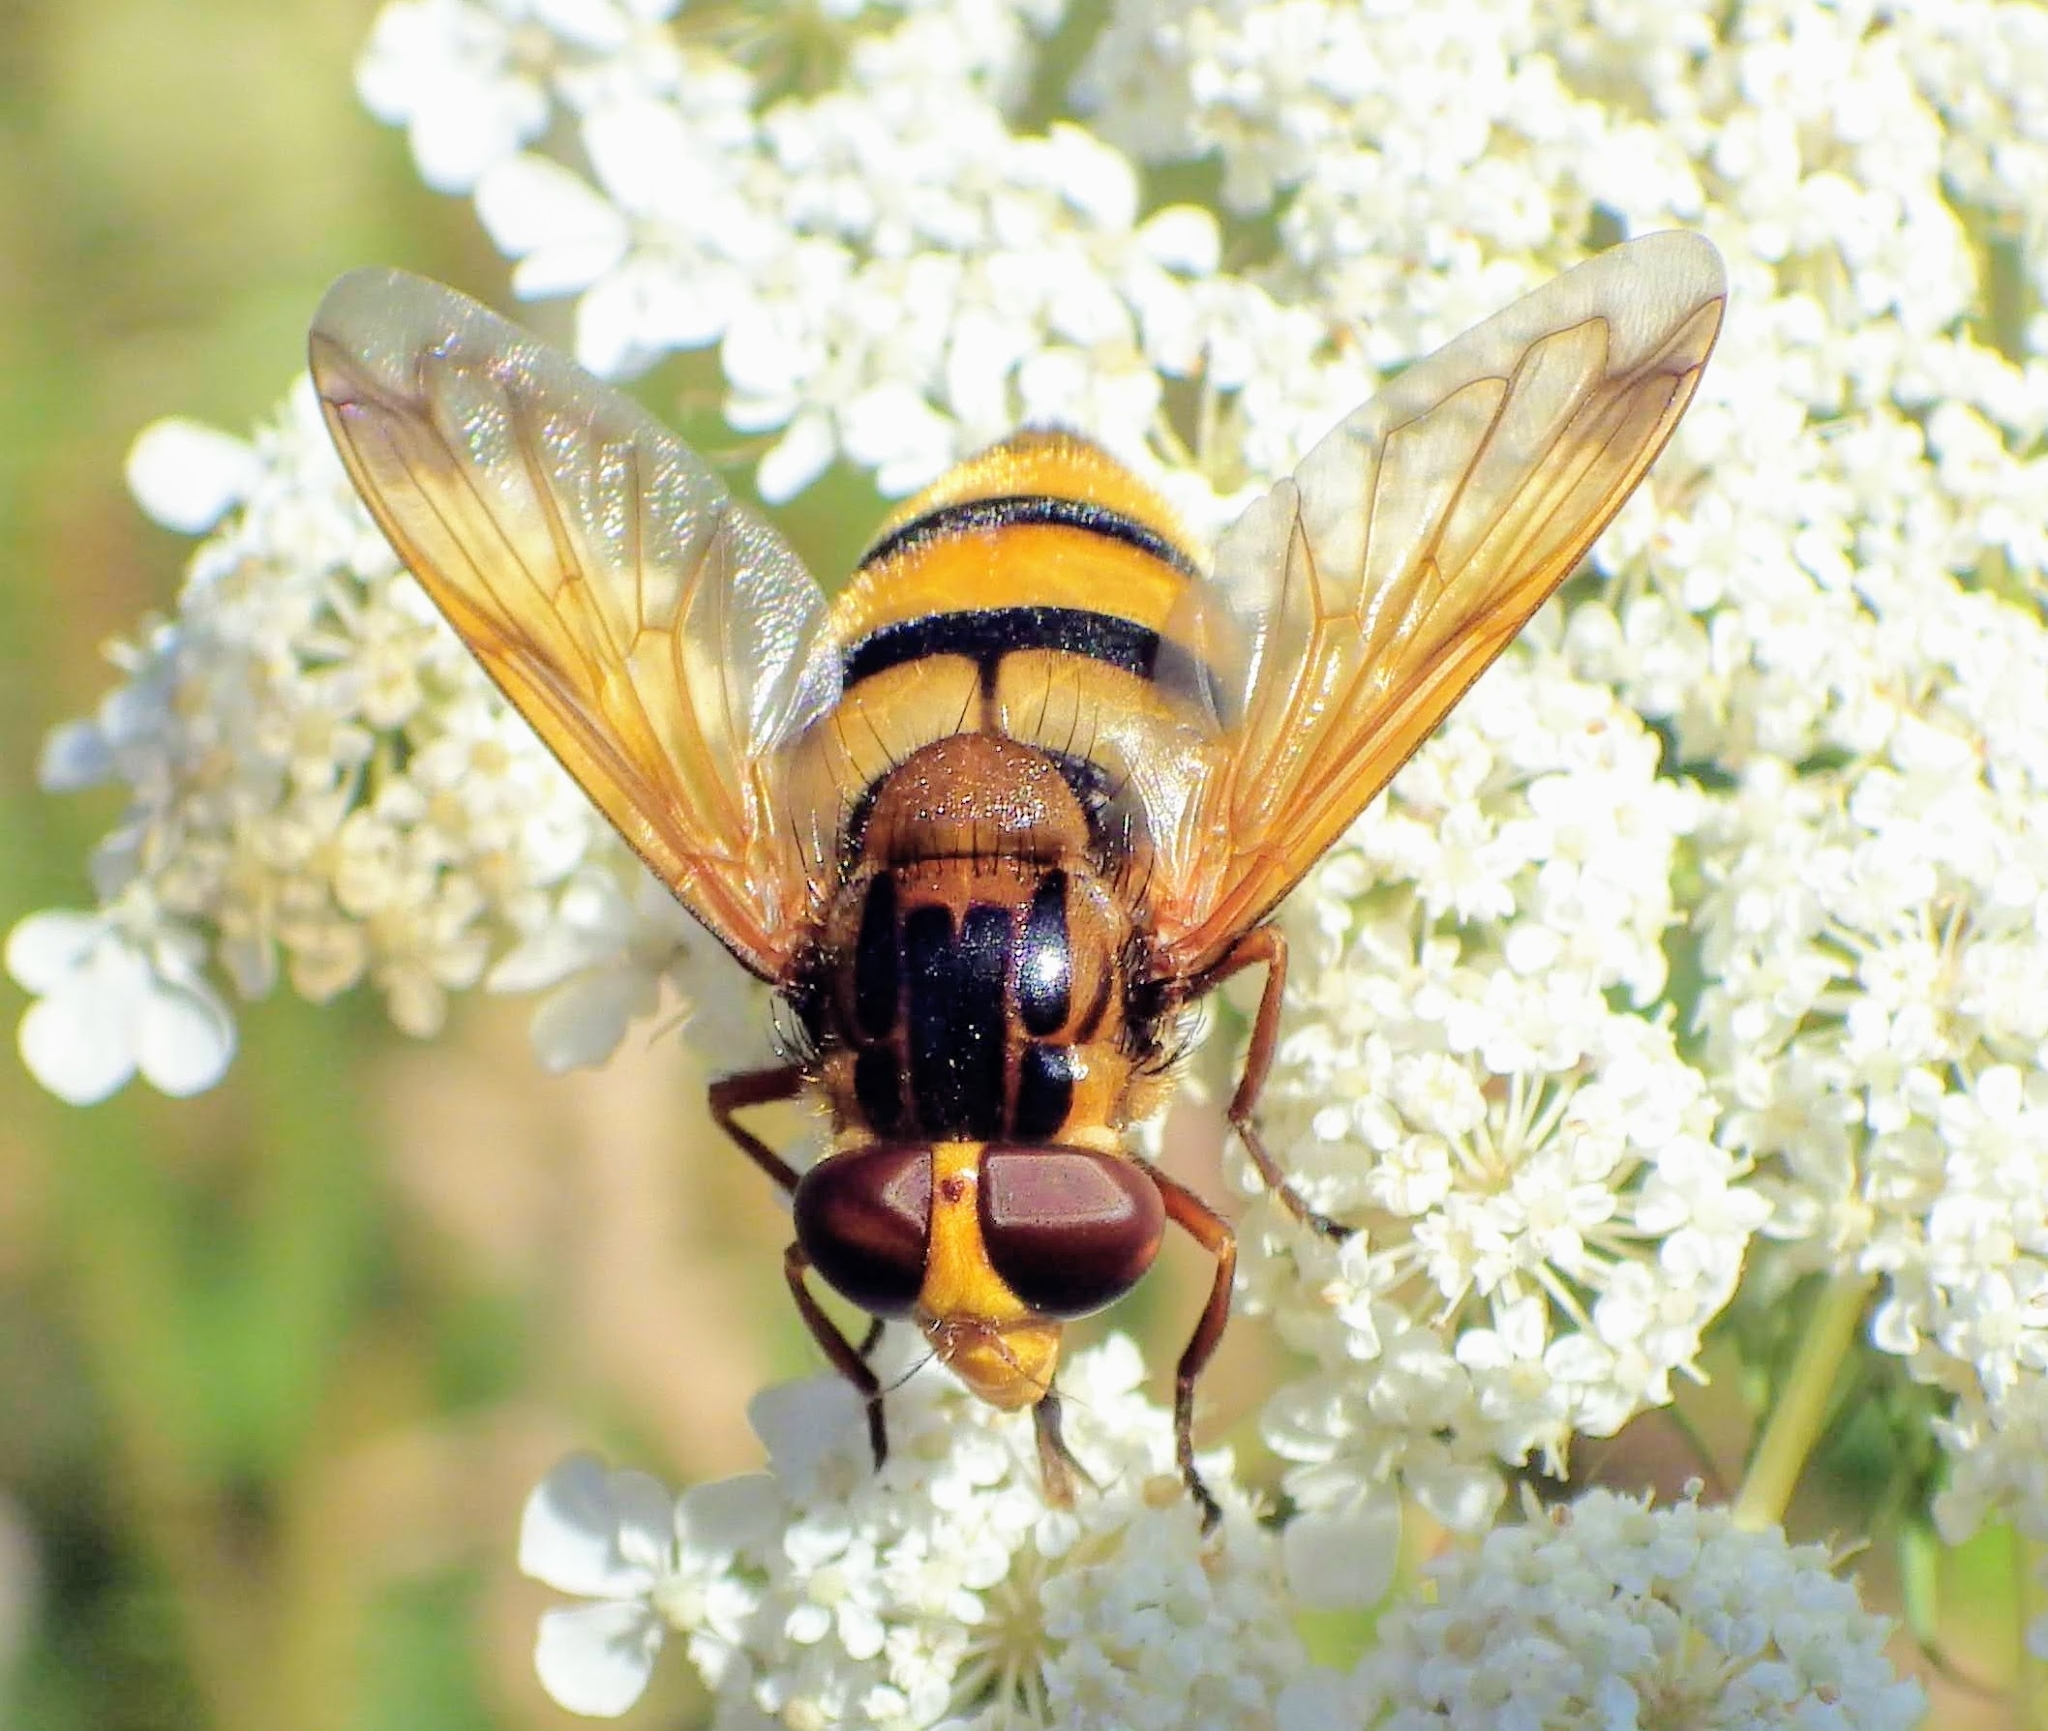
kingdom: Animalia
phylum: Arthropoda
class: Insecta
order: Diptera
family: Syrphidae
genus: Volucella
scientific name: Volucella inanis
